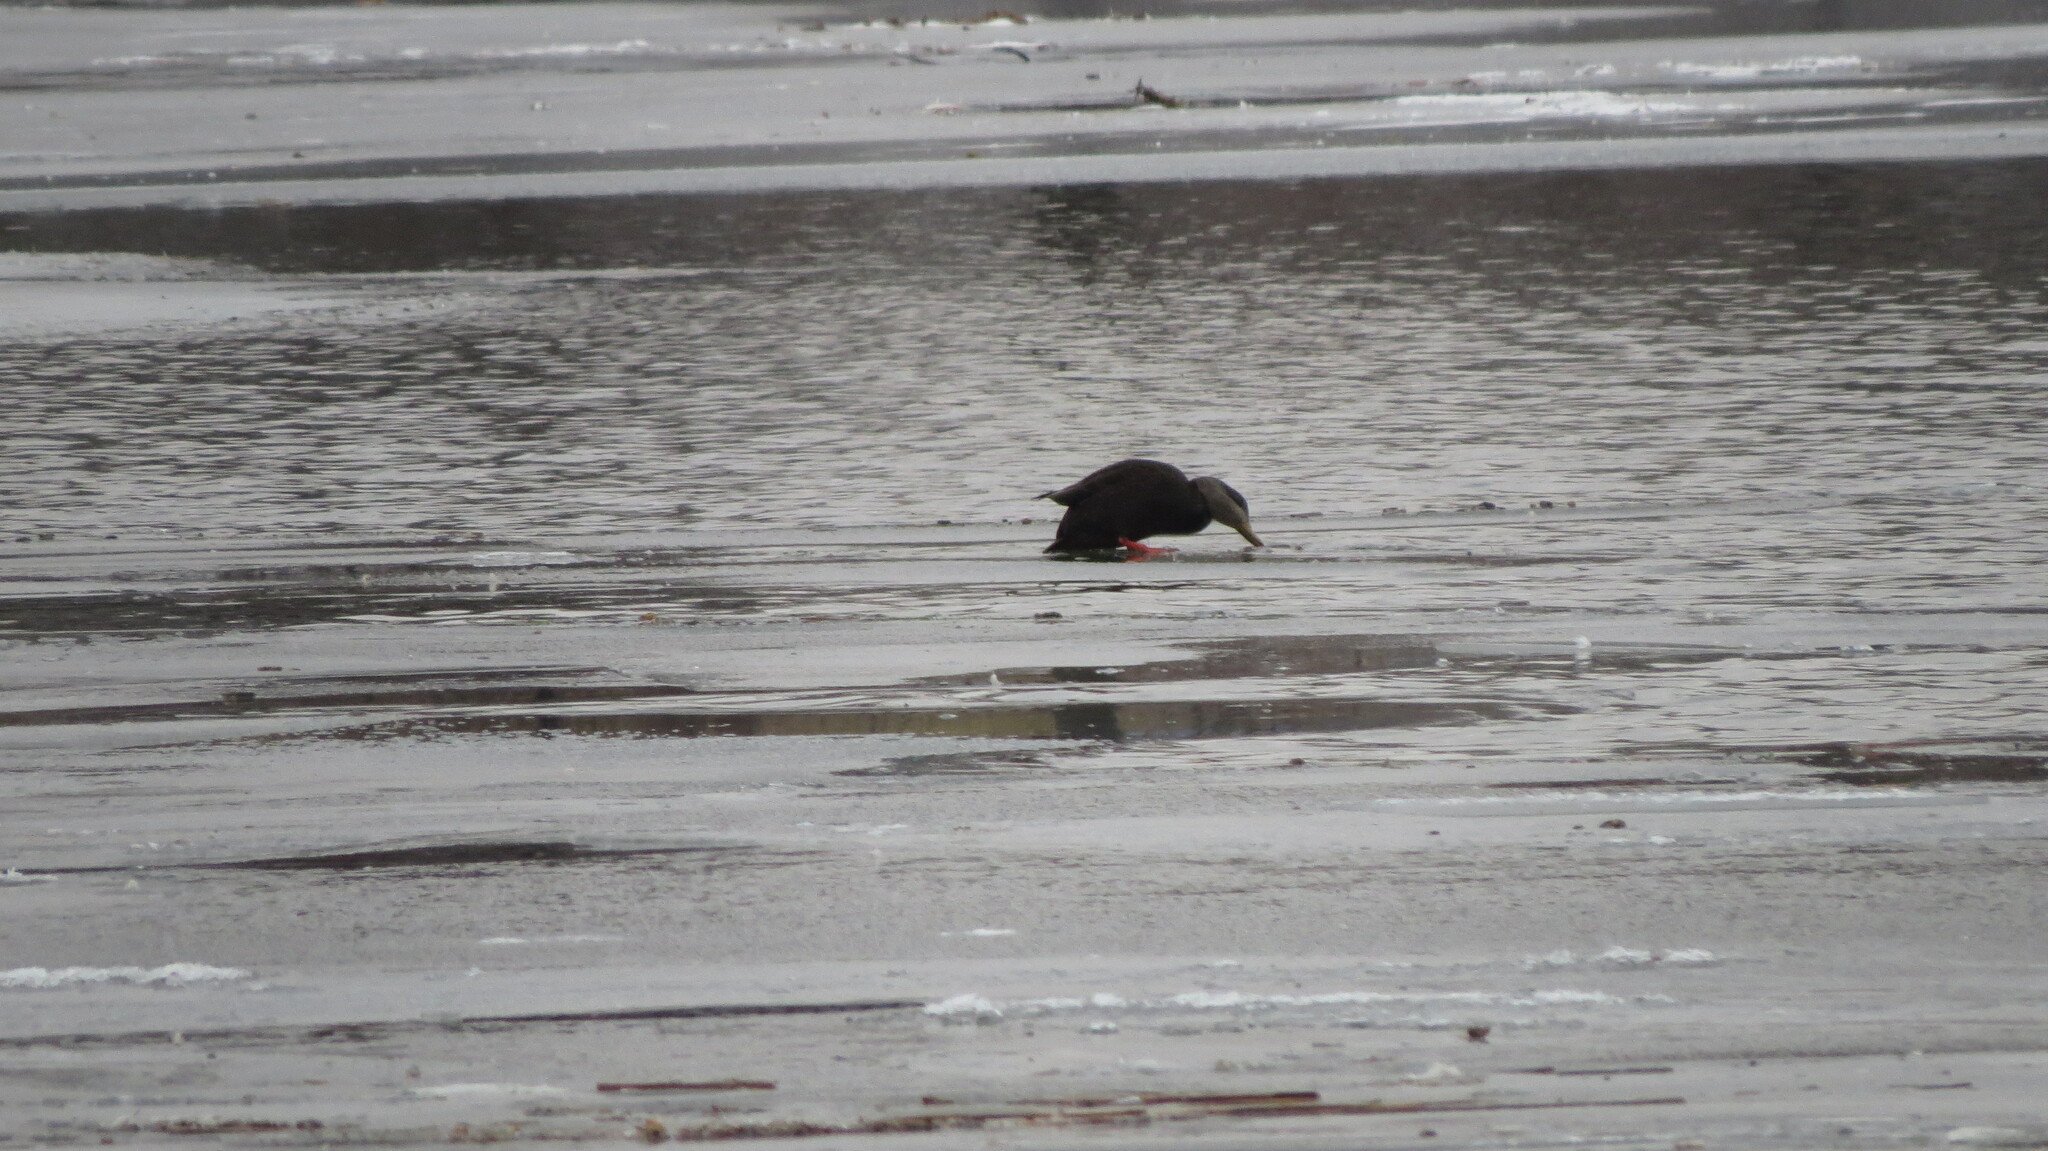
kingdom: Animalia
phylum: Chordata
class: Aves
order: Anseriformes
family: Anatidae
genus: Anas
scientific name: Anas rubripes
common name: American black duck
